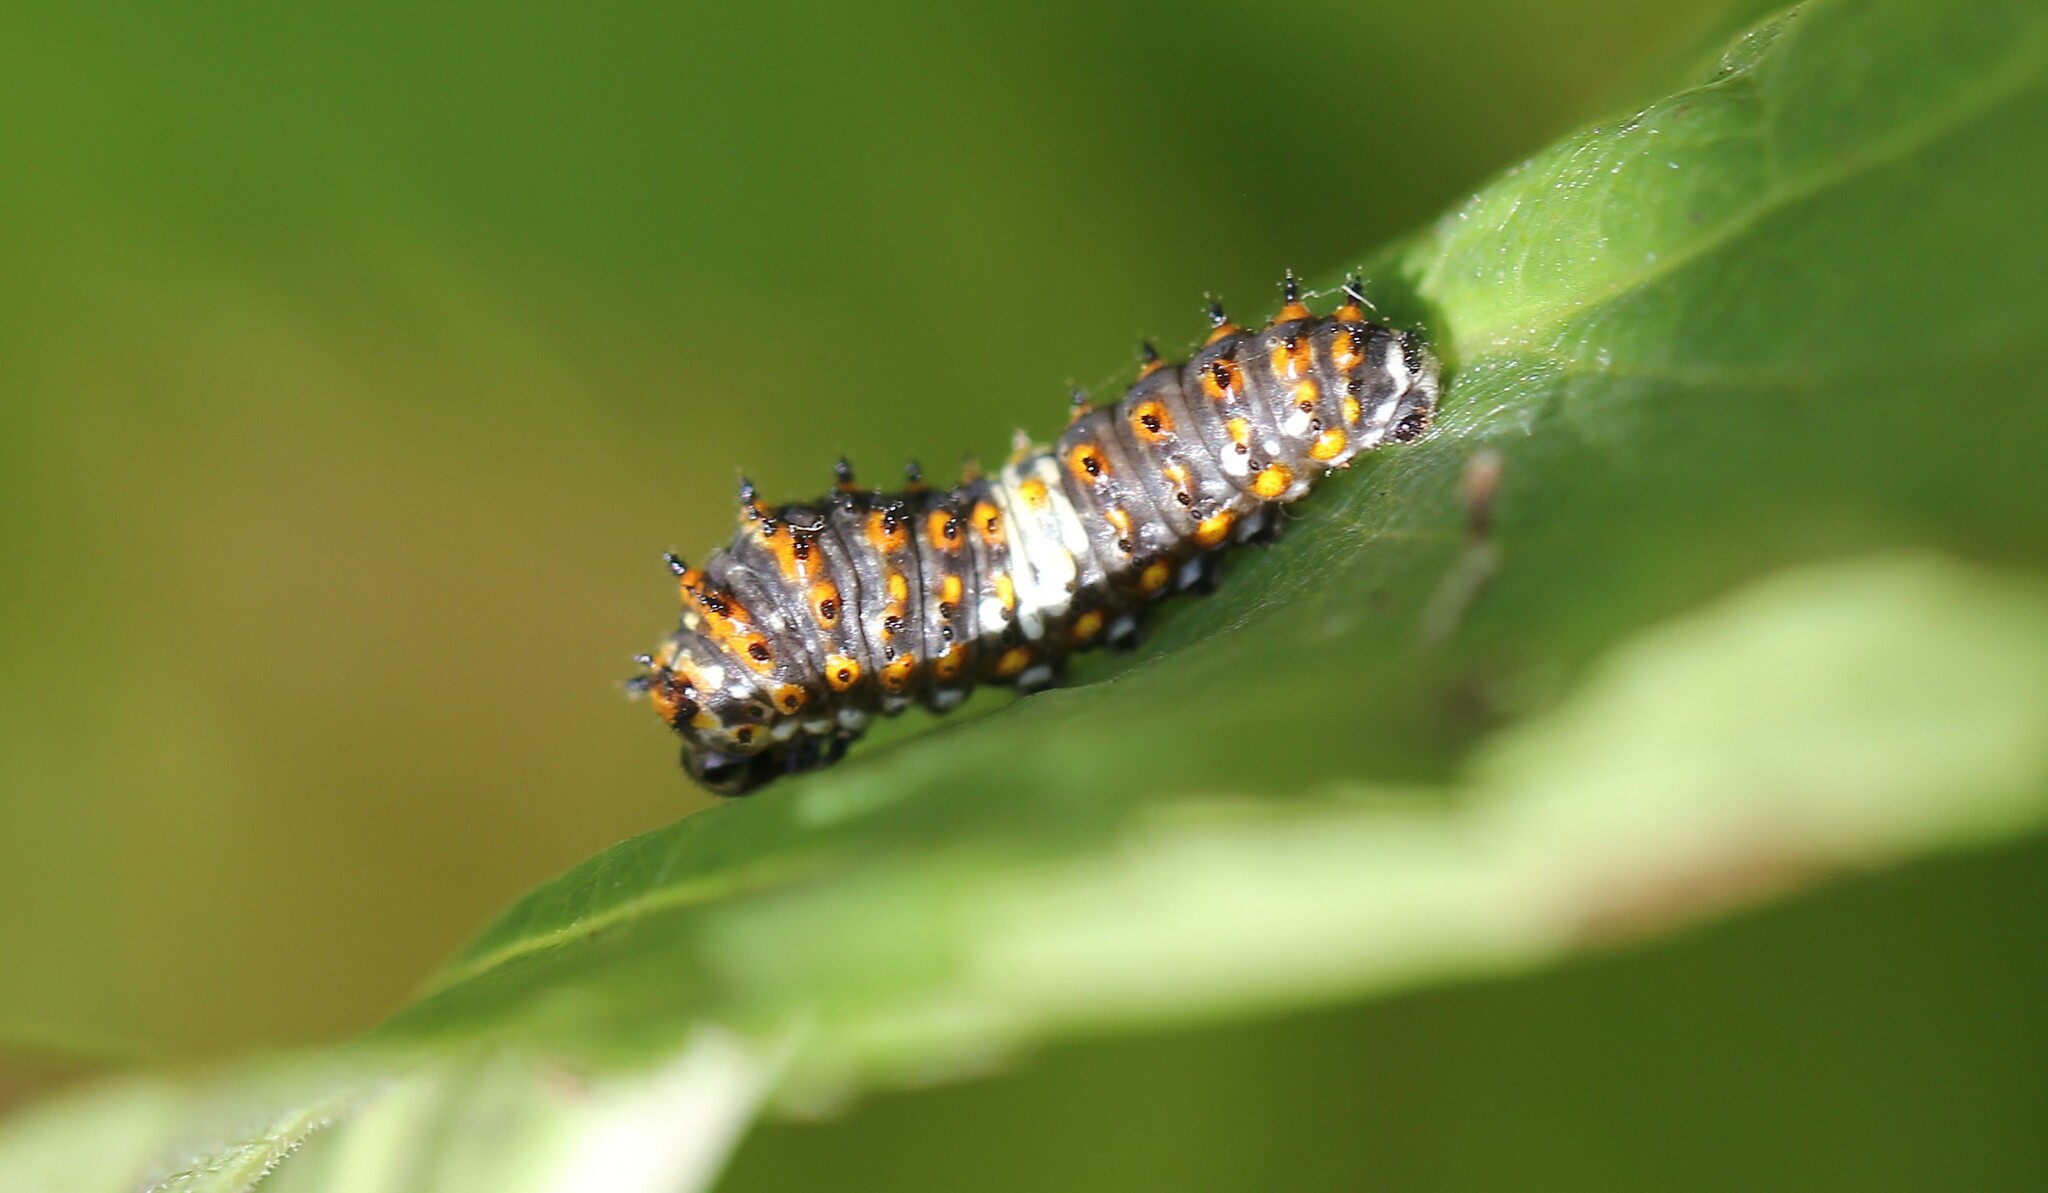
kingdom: Animalia
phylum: Arthropoda
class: Insecta
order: Lepidoptera
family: Papilionidae
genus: Papilio
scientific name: Papilio polyxenes
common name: Black swallowtail
